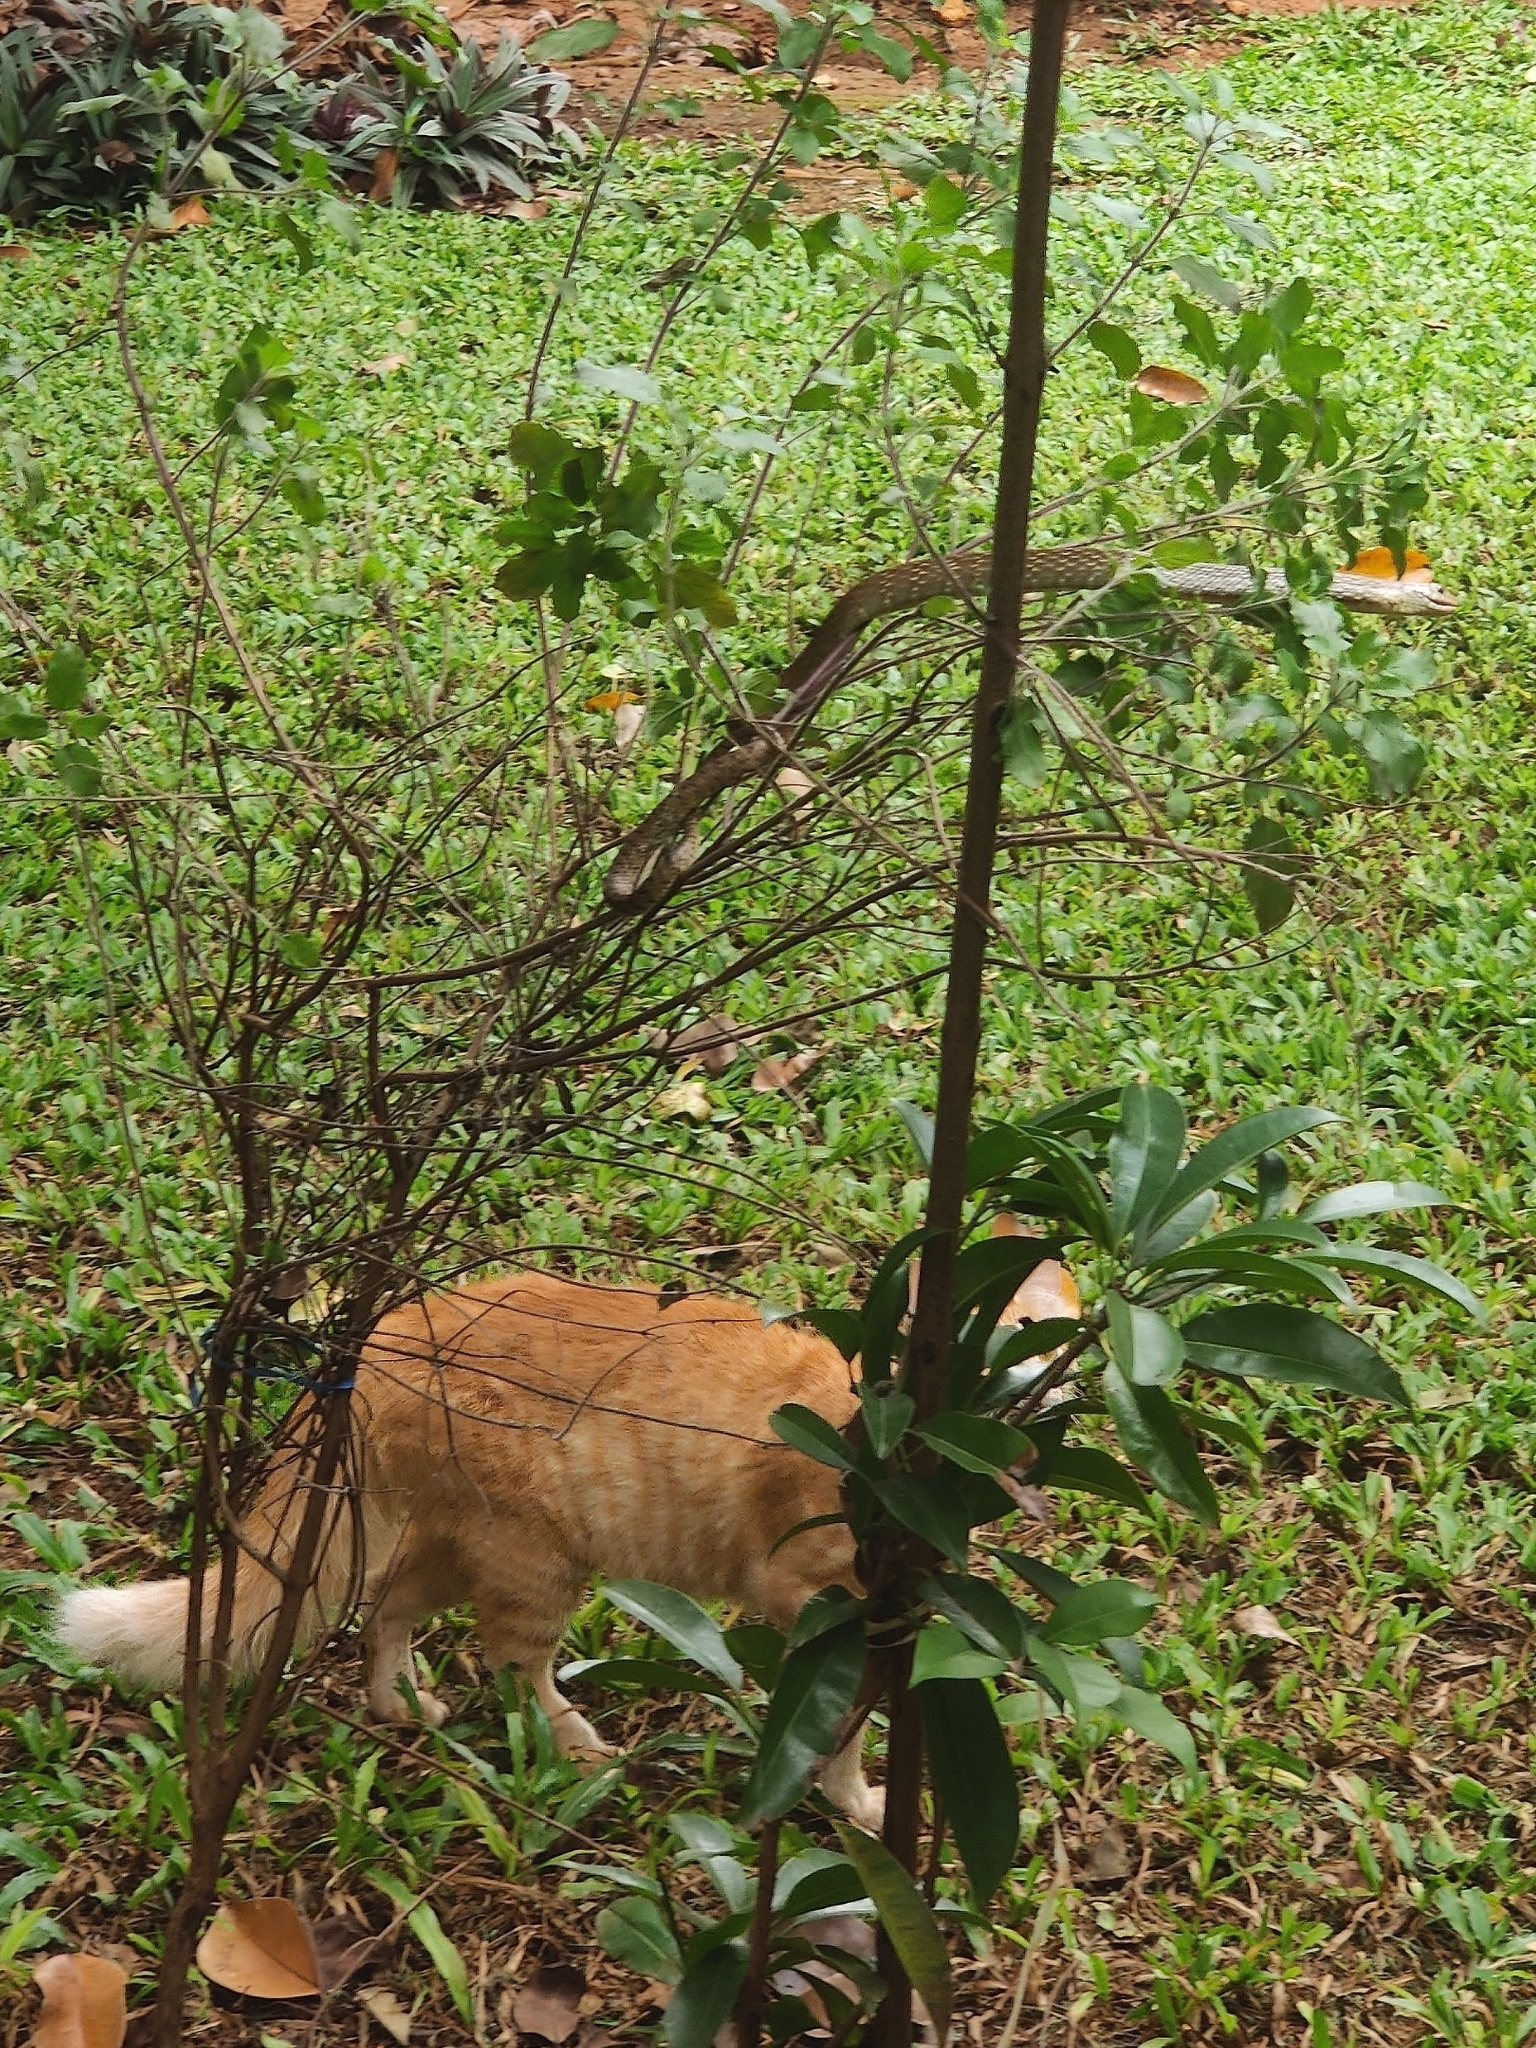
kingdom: Animalia
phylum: Chordata
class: Squamata
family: Colubridae
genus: Ptyas
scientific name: Ptyas mucosa
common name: Oriental ratsnake
